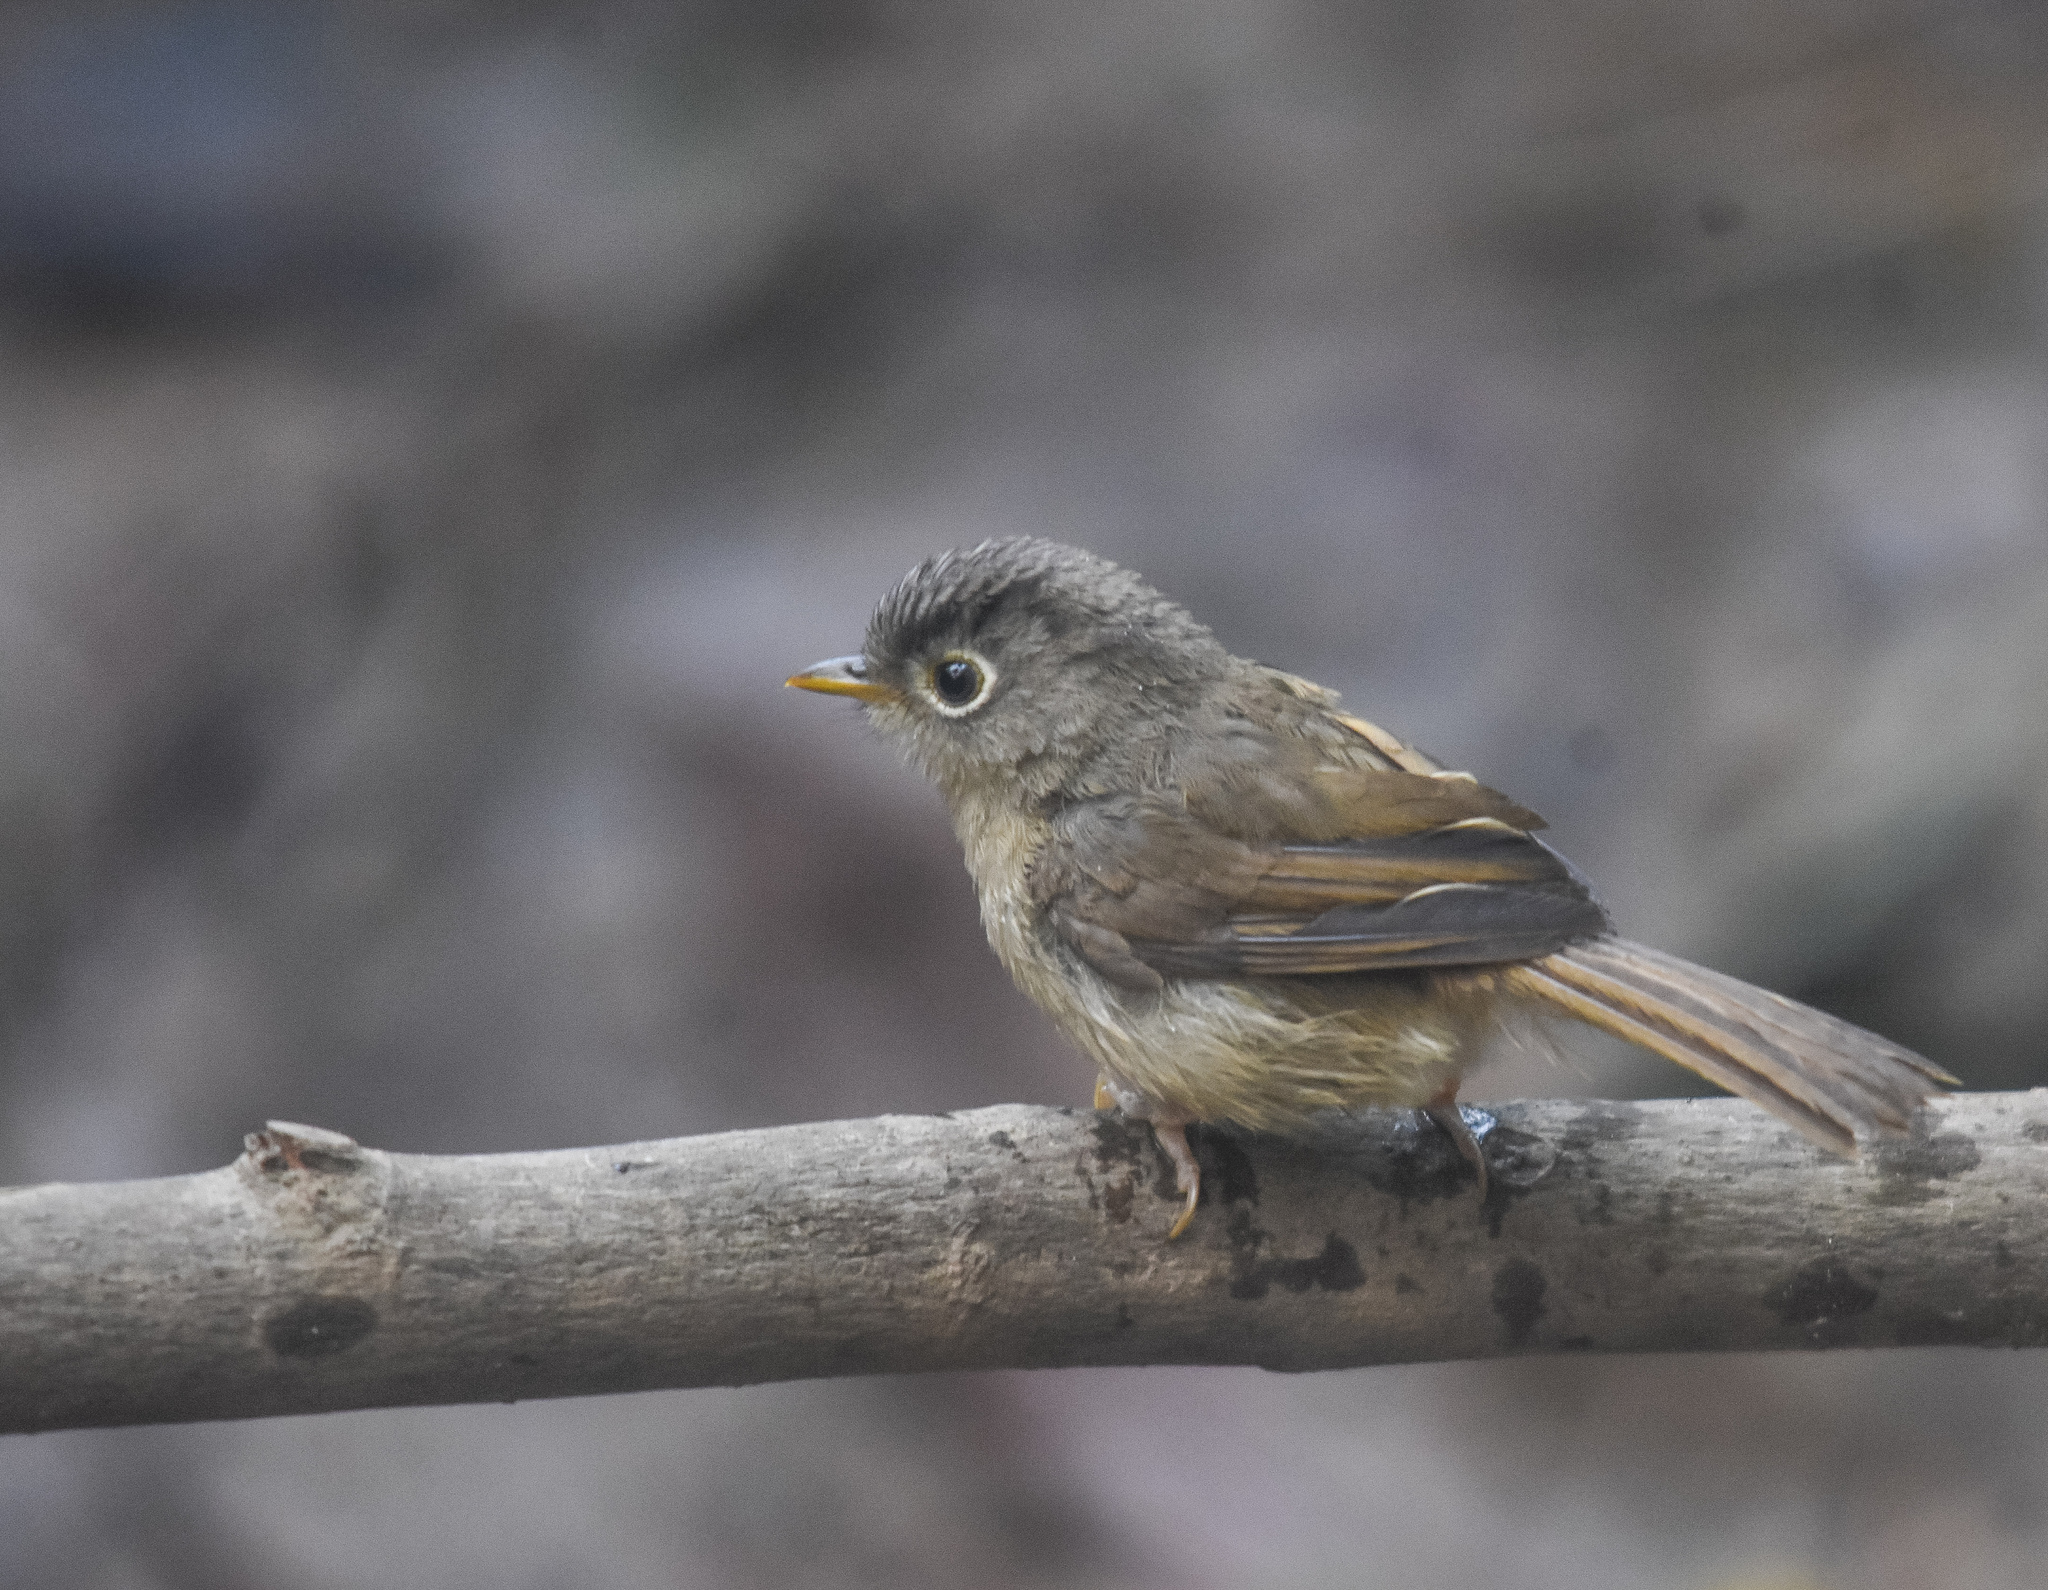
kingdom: Animalia
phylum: Chordata
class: Aves
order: Passeriformes
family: Pellorneidae
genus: Alcippe
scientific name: Alcippe nipalensis
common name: Nepal fulvetta
